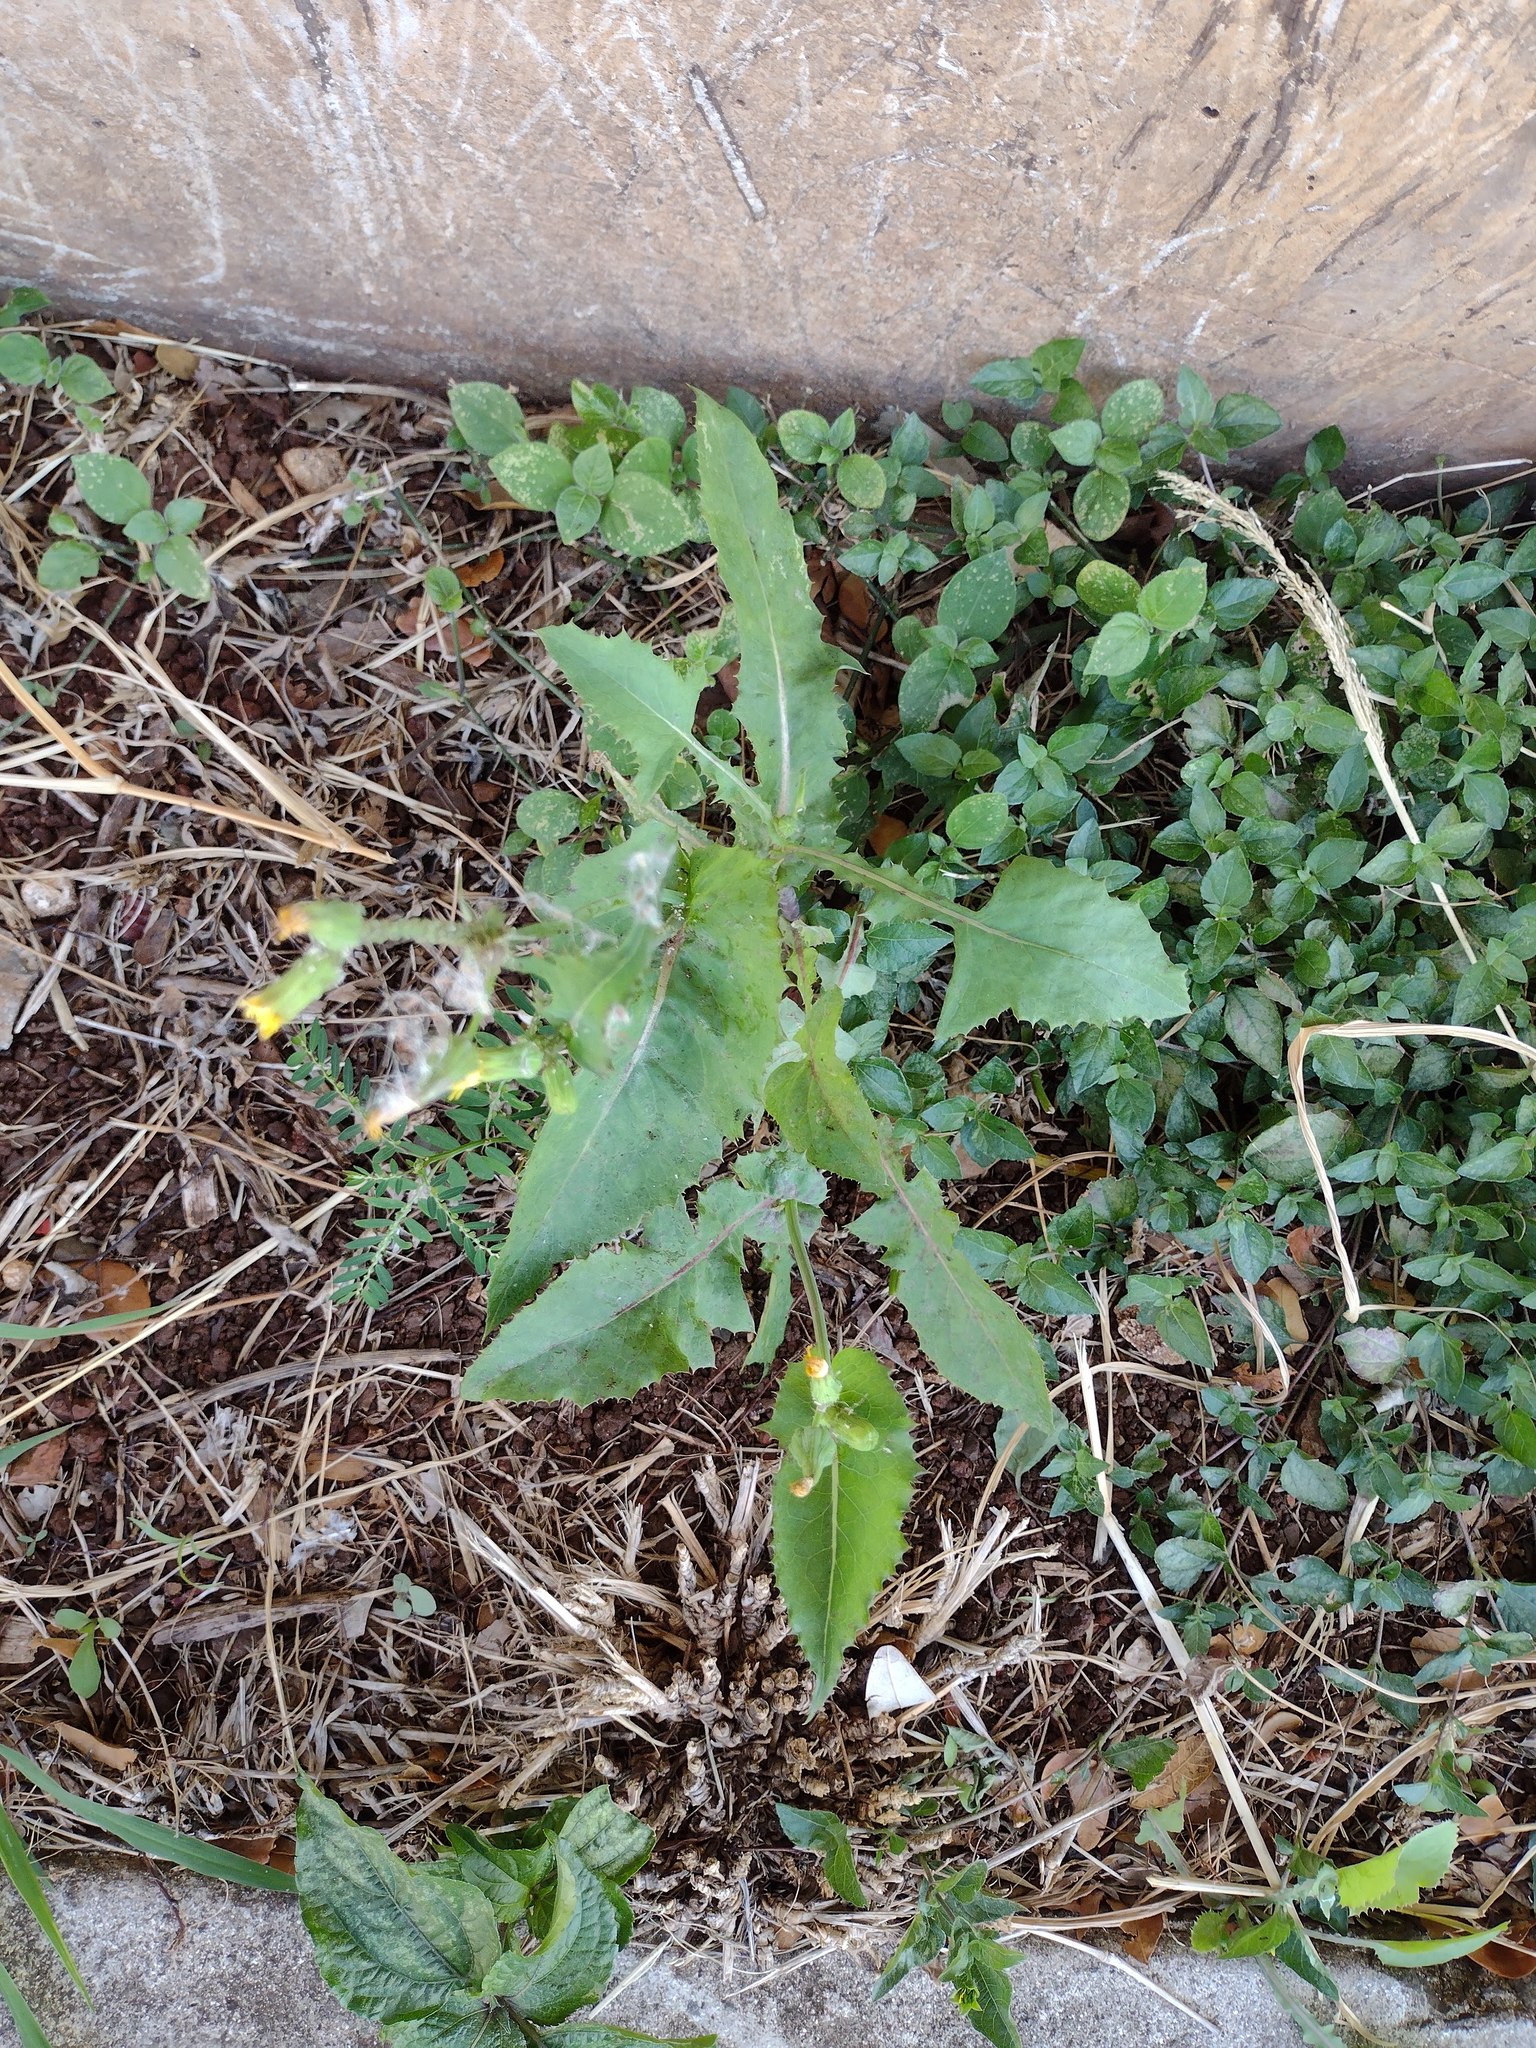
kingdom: Plantae
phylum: Tracheophyta
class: Magnoliopsida
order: Asterales
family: Asteraceae
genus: Sonchus
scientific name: Sonchus oleraceus
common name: Common sowthistle
